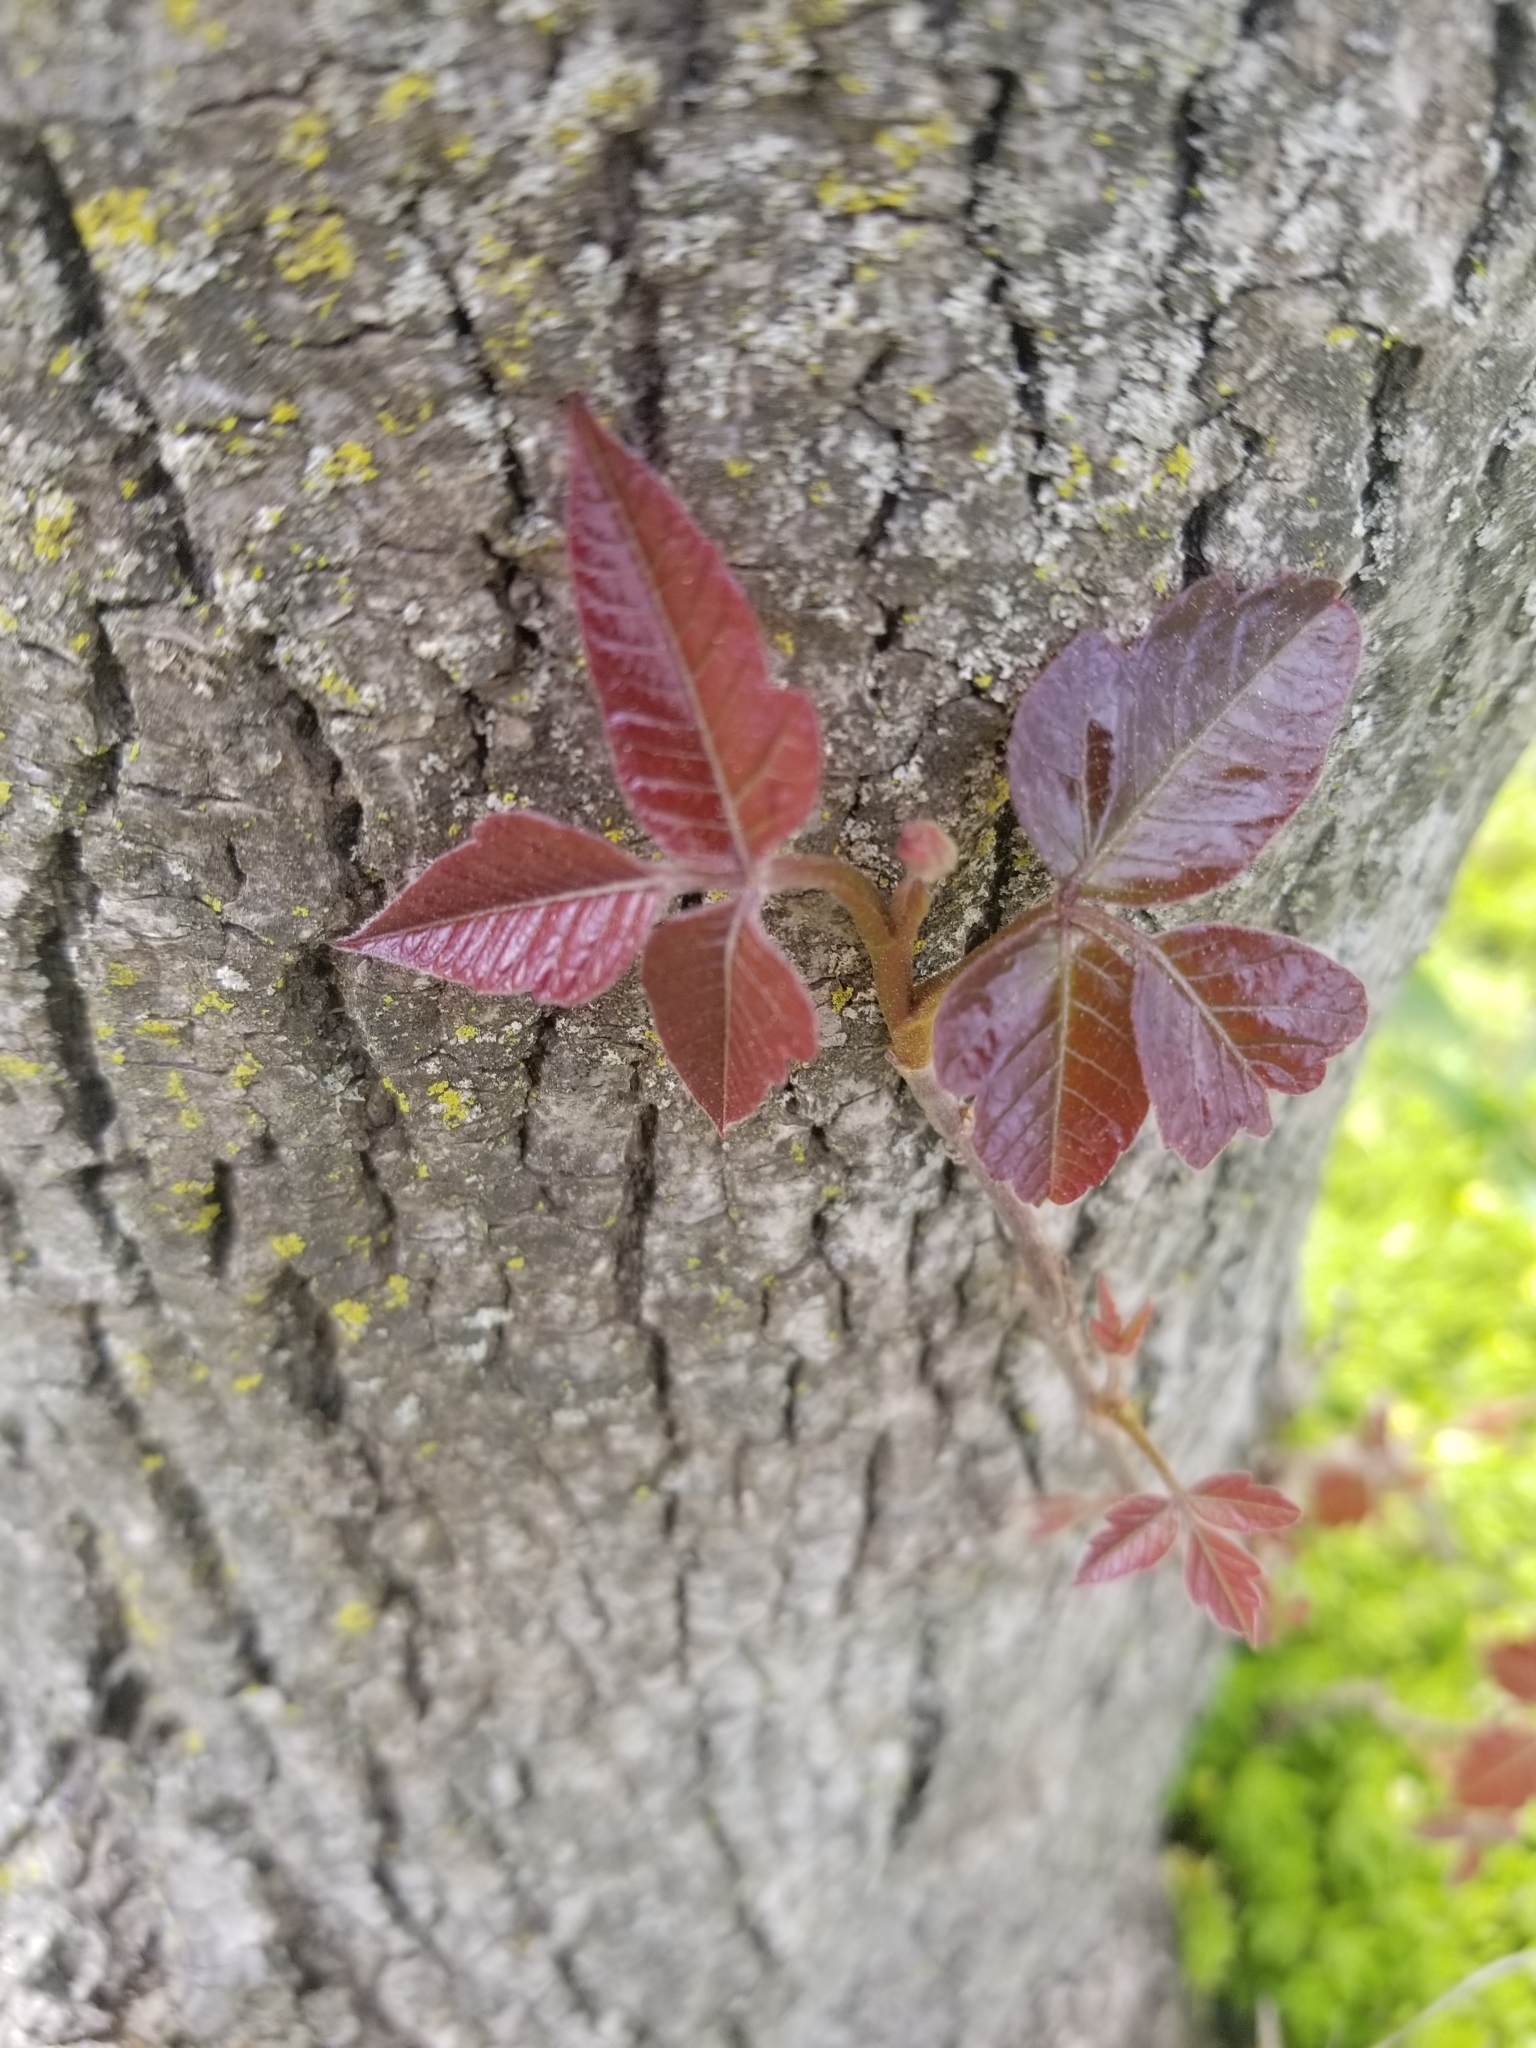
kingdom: Plantae
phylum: Tracheophyta
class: Magnoliopsida
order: Sapindales
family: Anacardiaceae
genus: Toxicodendron
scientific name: Toxicodendron radicans
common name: Poison ivy
